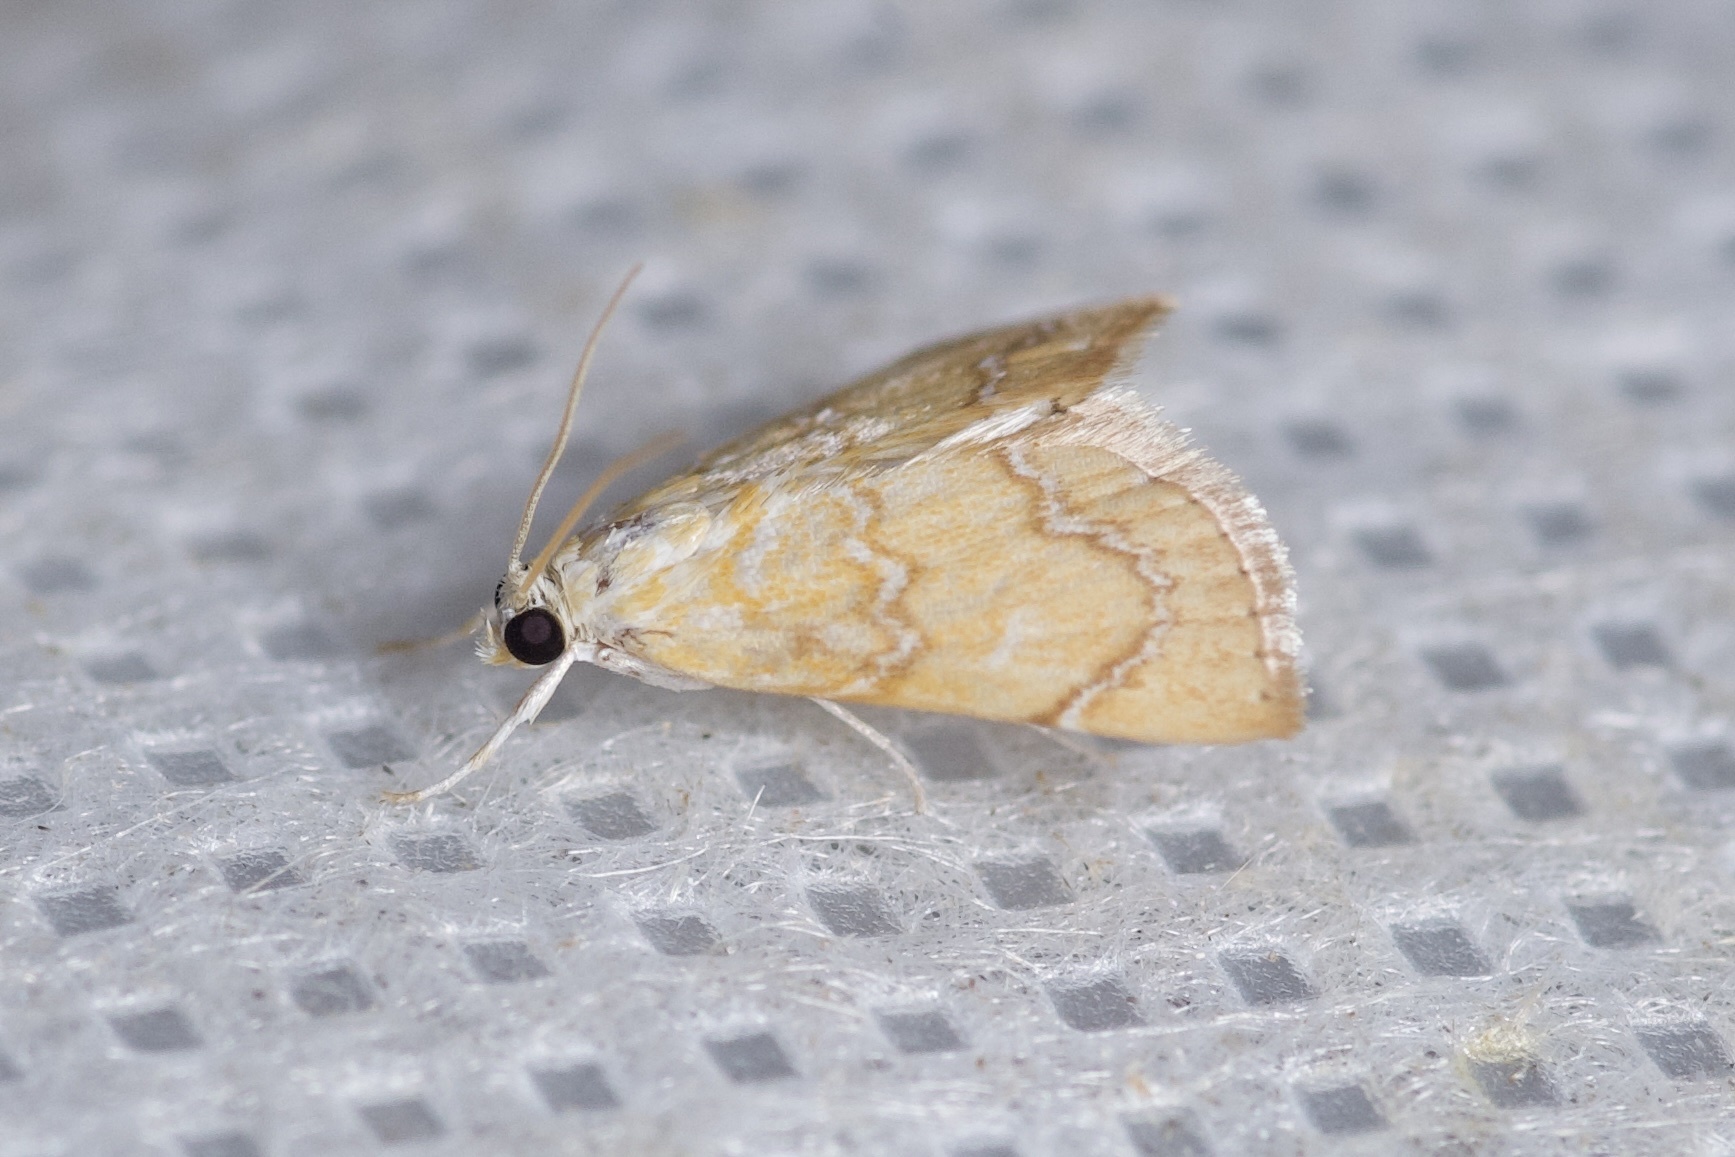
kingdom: Animalia
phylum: Arthropoda
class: Insecta
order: Lepidoptera
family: Crambidae
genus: Glaphyria
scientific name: Glaphyria sesquistrialis
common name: White-roped glaphyria
